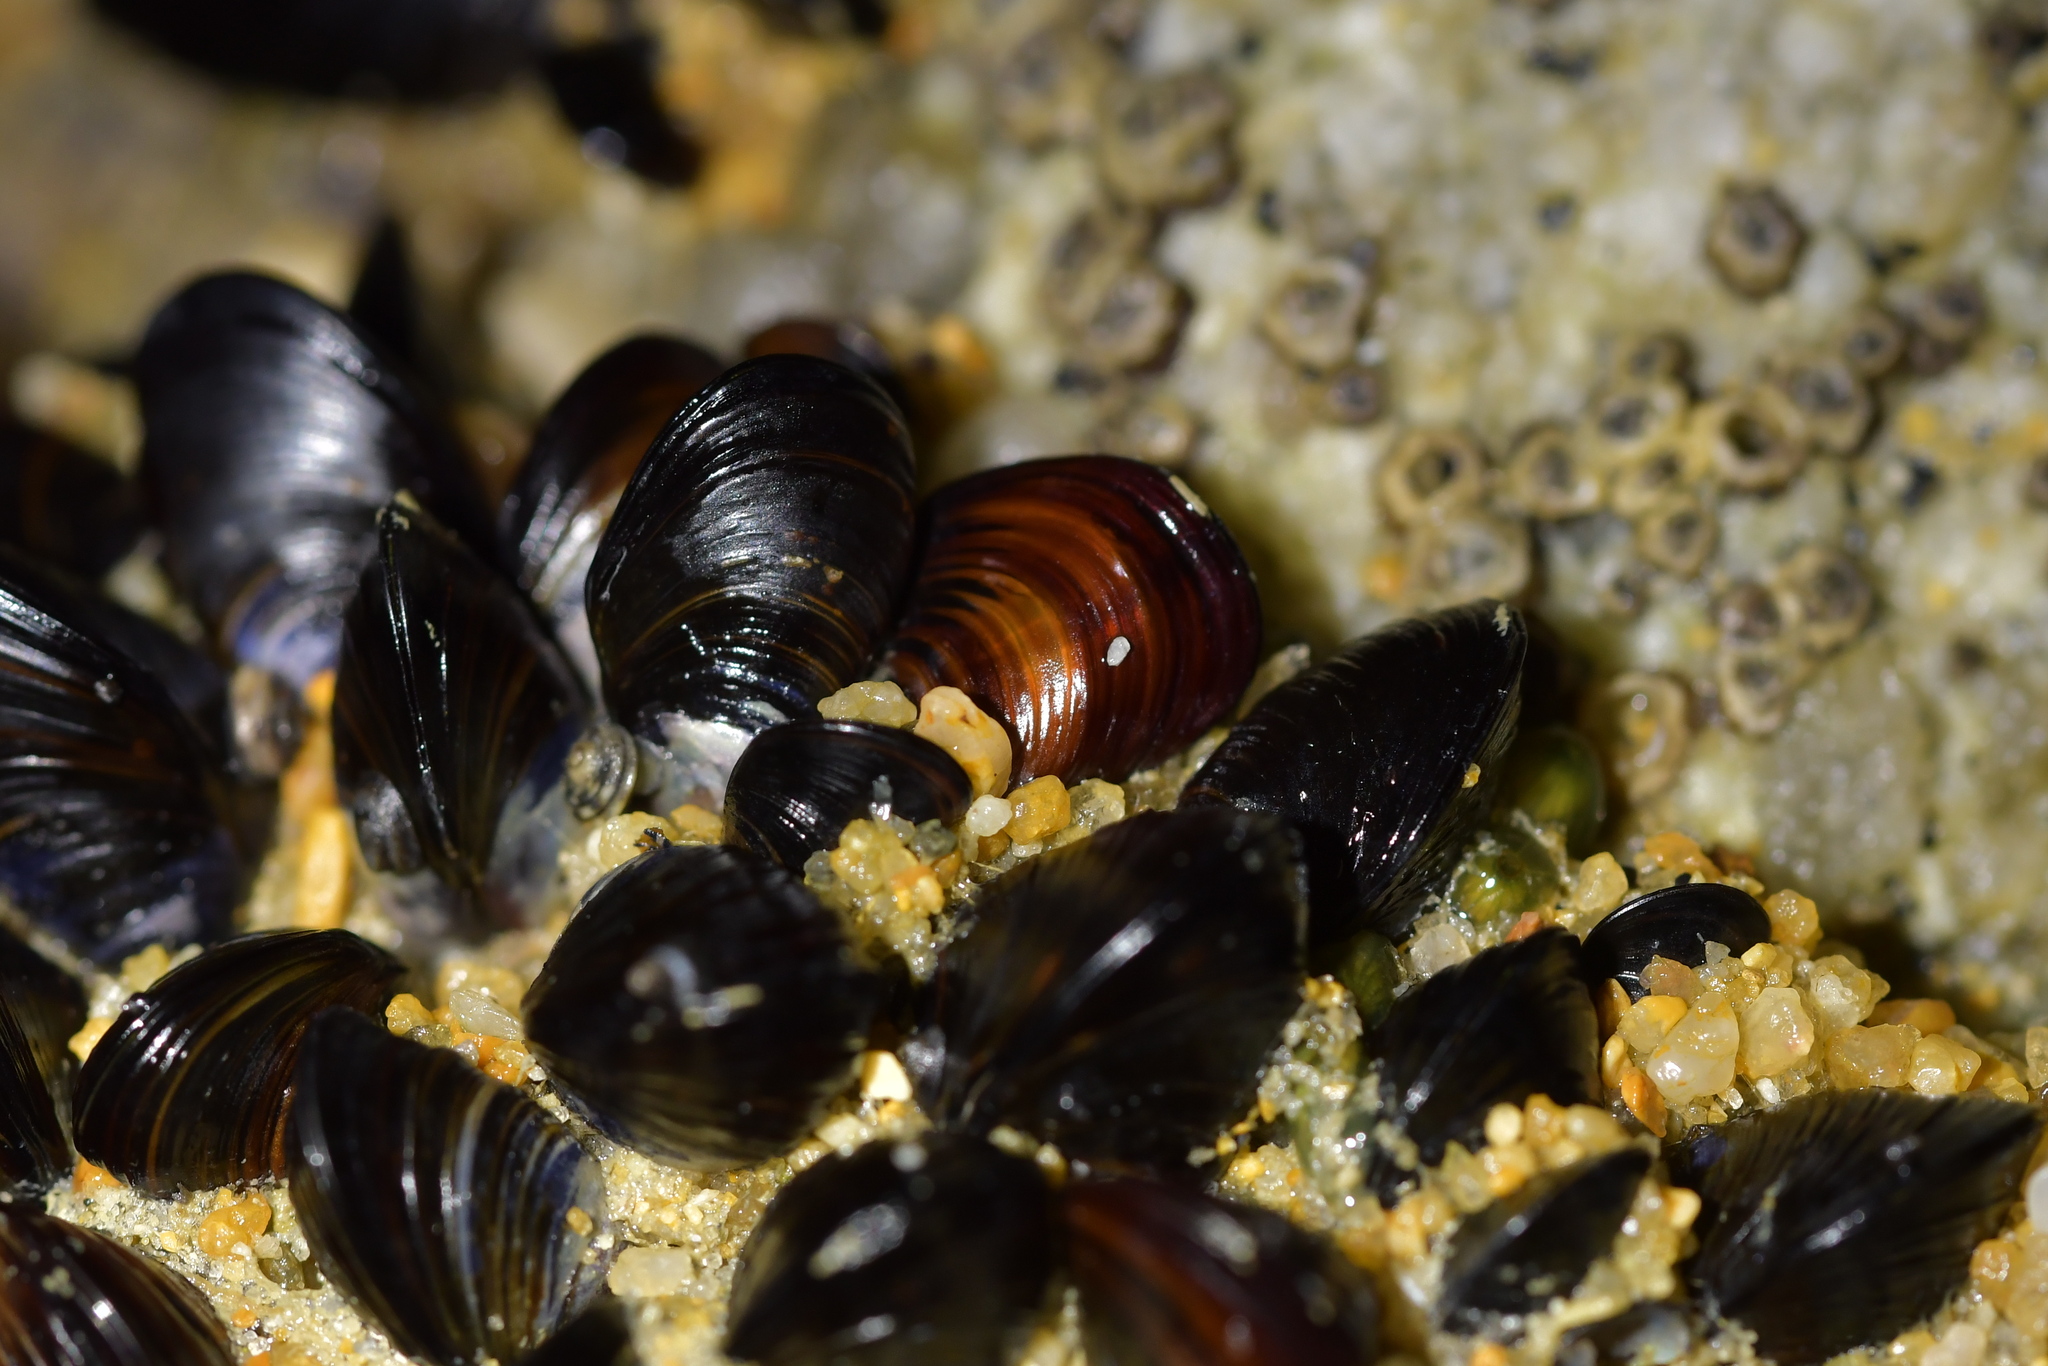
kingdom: Animalia
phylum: Mollusca
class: Bivalvia
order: Mytilida
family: Mytilidae
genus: Xenostrobus
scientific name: Xenostrobus neozelanicus
